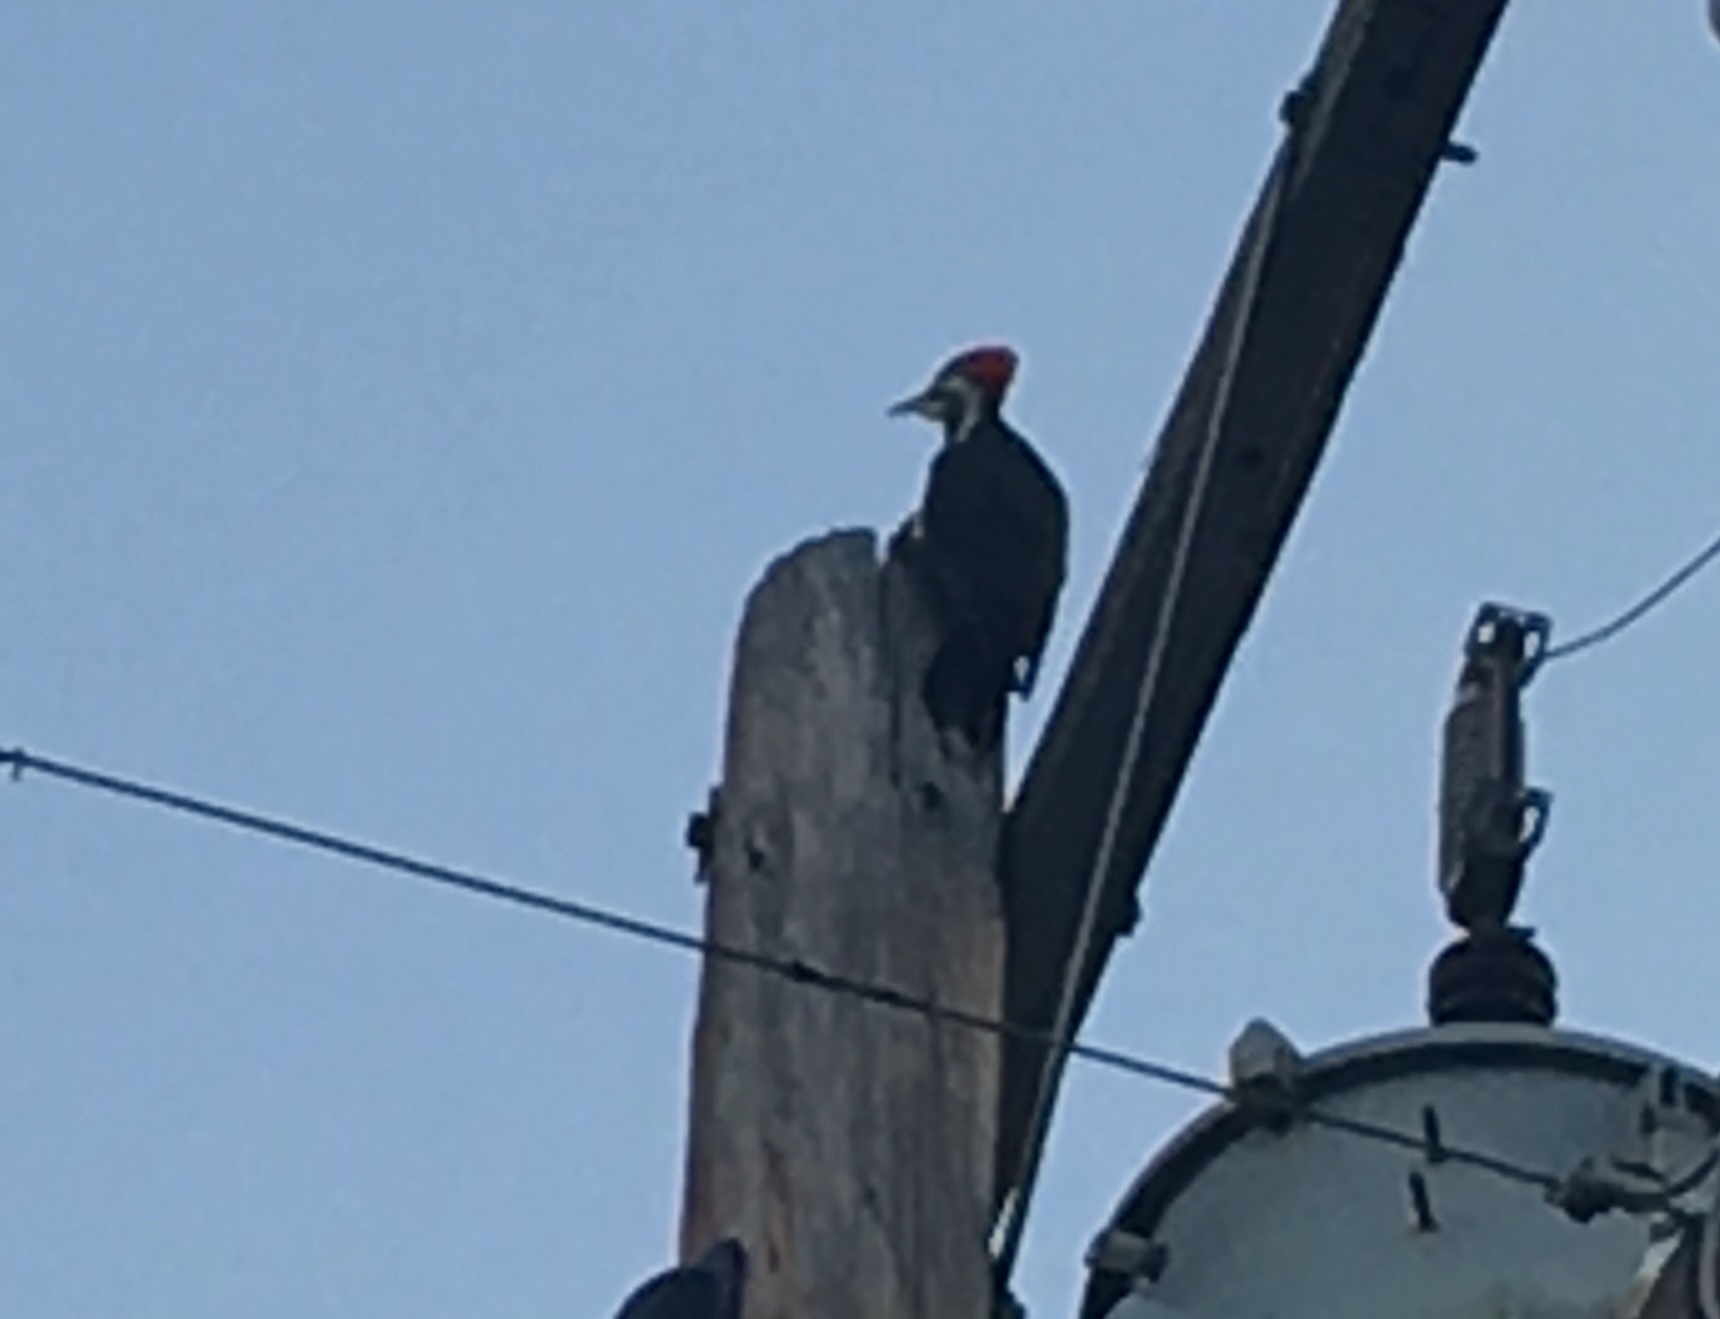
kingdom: Animalia
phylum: Chordata
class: Aves
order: Piciformes
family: Picidae
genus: Dryocopus
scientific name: Dryocopus pileatus
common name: Pileated woodpecker
